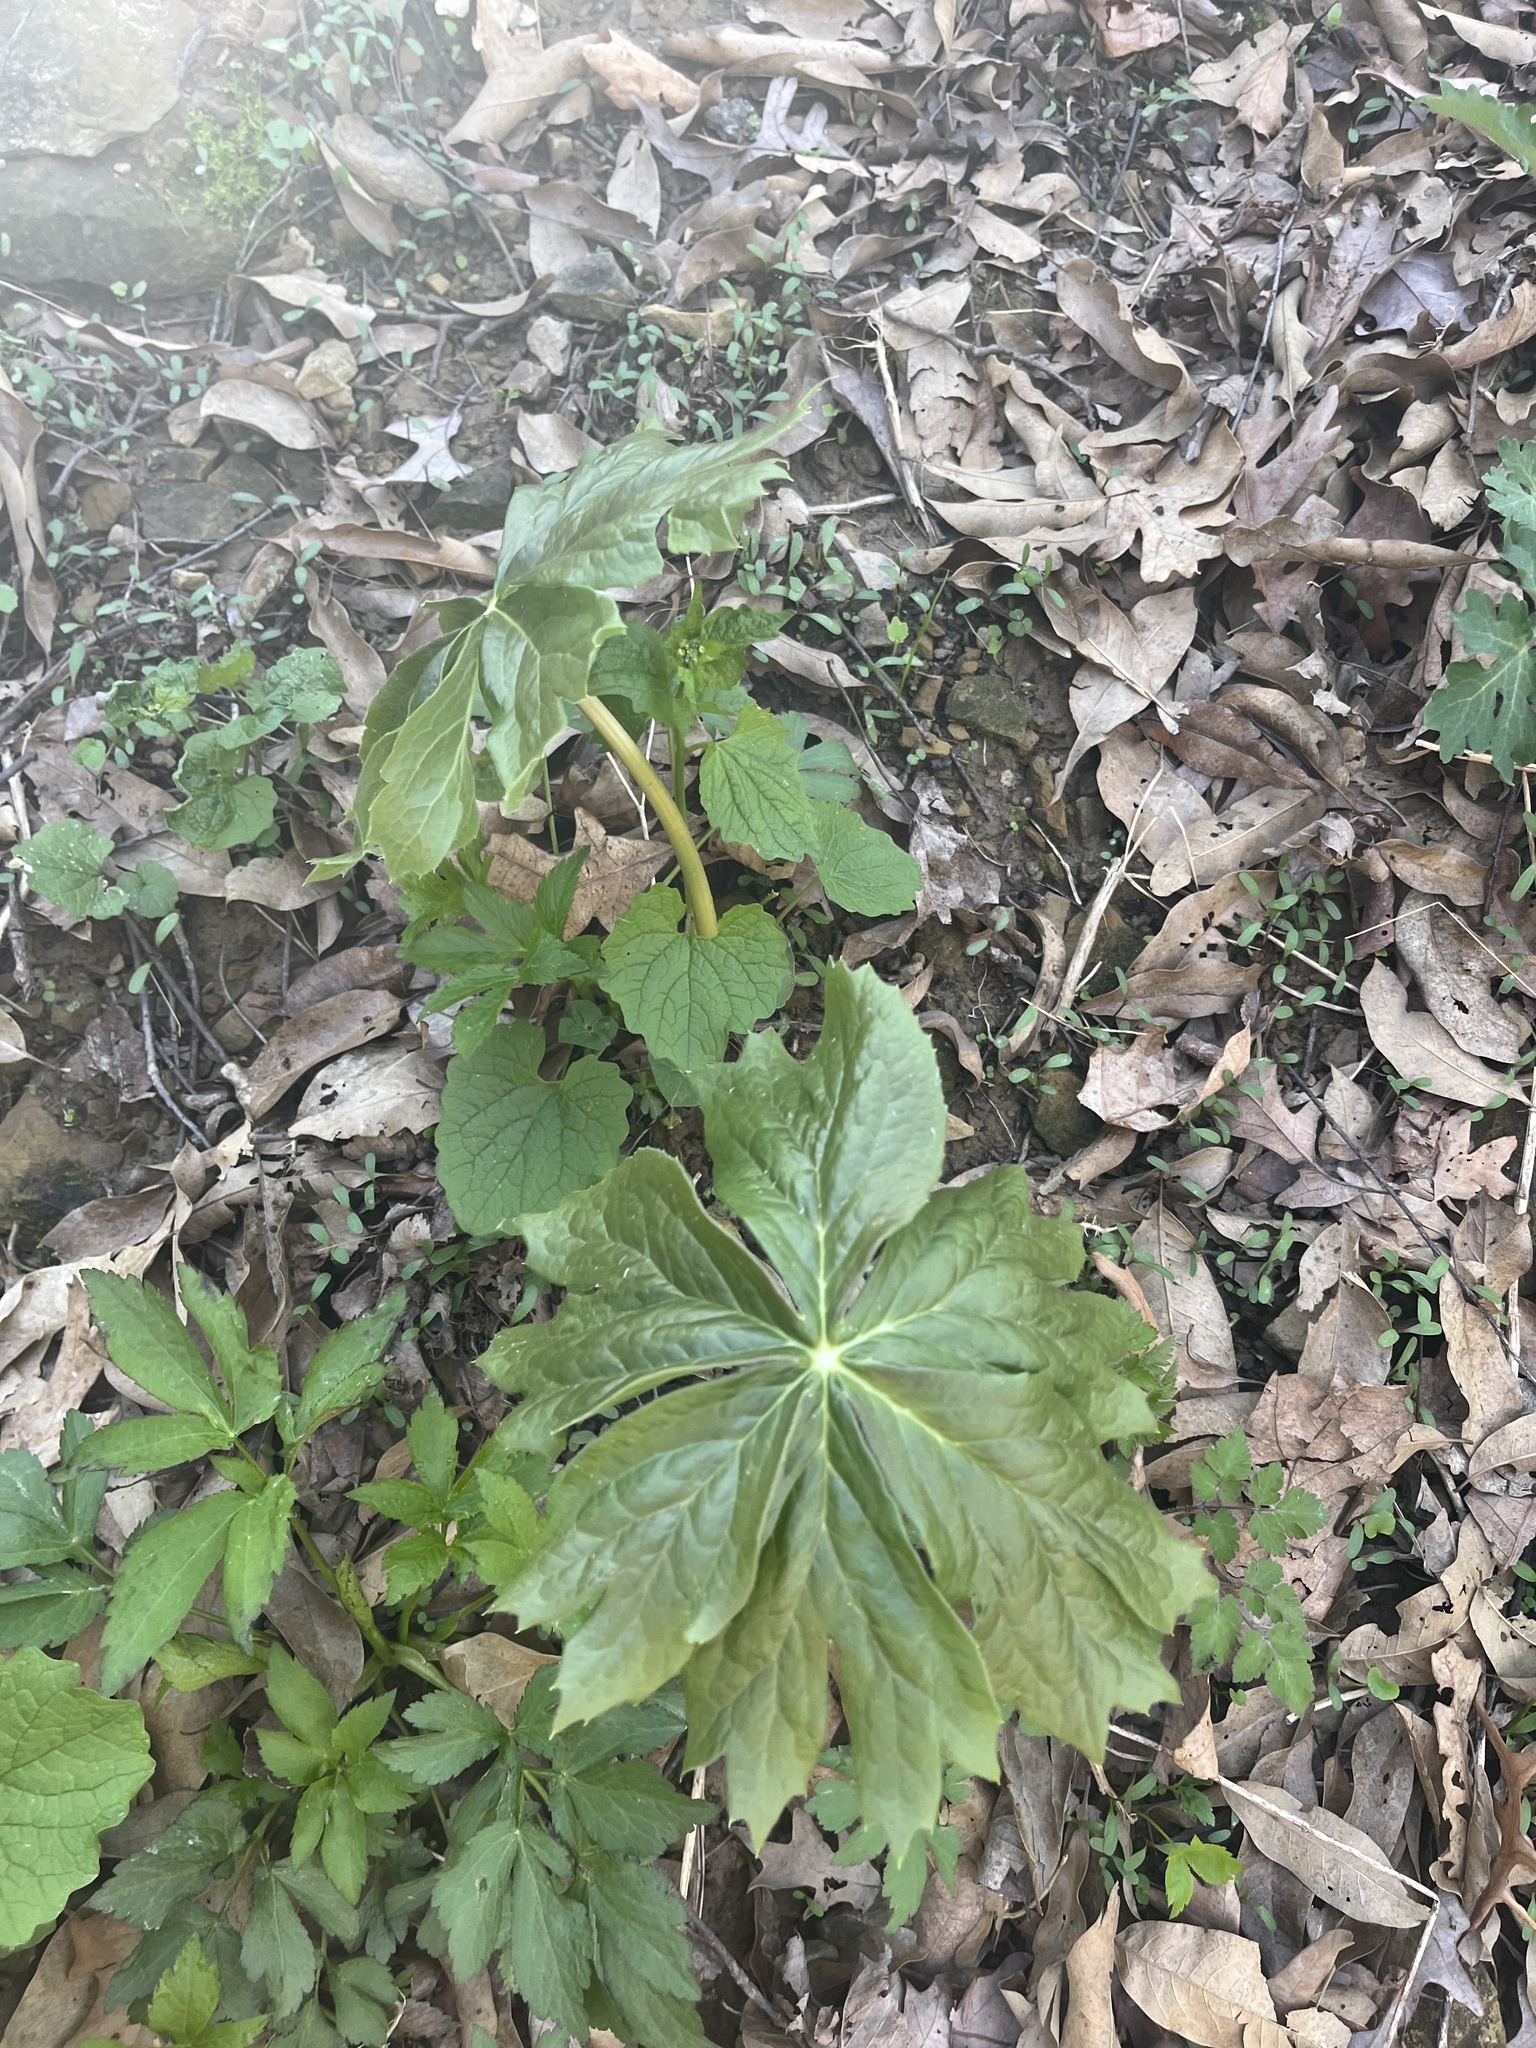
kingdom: Plantae
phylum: Tracheophyta
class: Magnoliopsida
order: Ranunculales
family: Berberidaceae
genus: Podophyllum
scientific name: Podophyllum peltatum
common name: Wild mandrake
